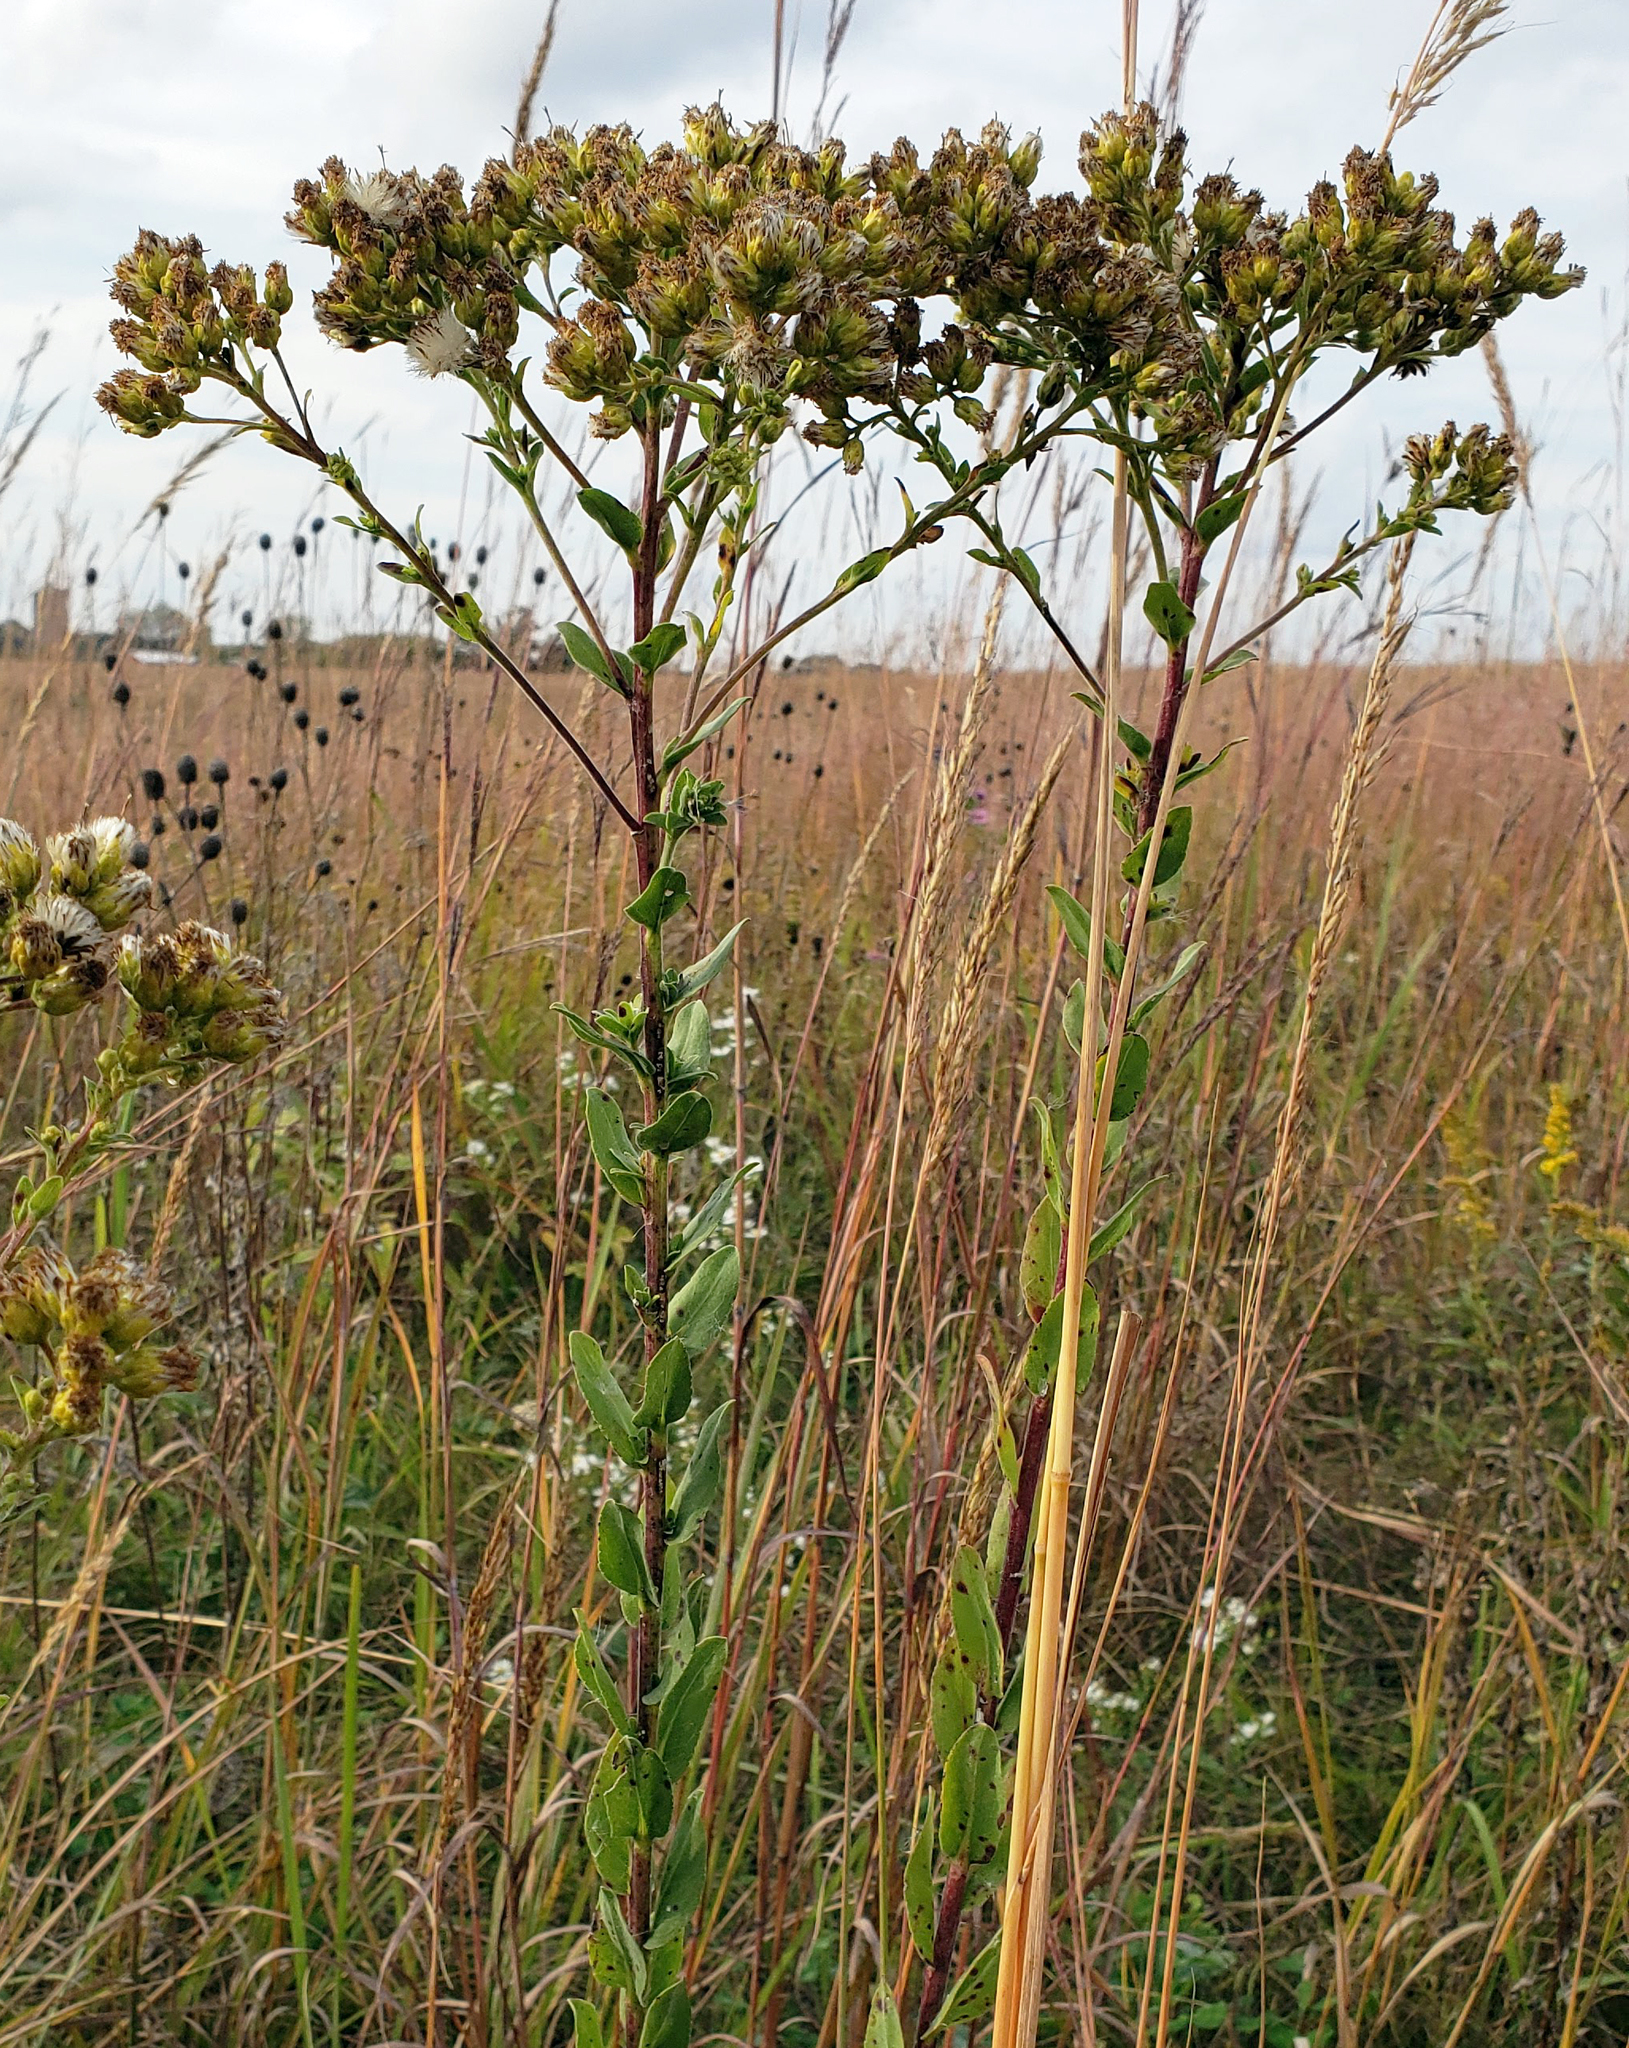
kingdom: Plantae
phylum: Tracheophyta
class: Magnoliopsida
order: Asterales
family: Asteraceae
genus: Solidago
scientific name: Solidago rigida
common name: Rigid goldenrod
